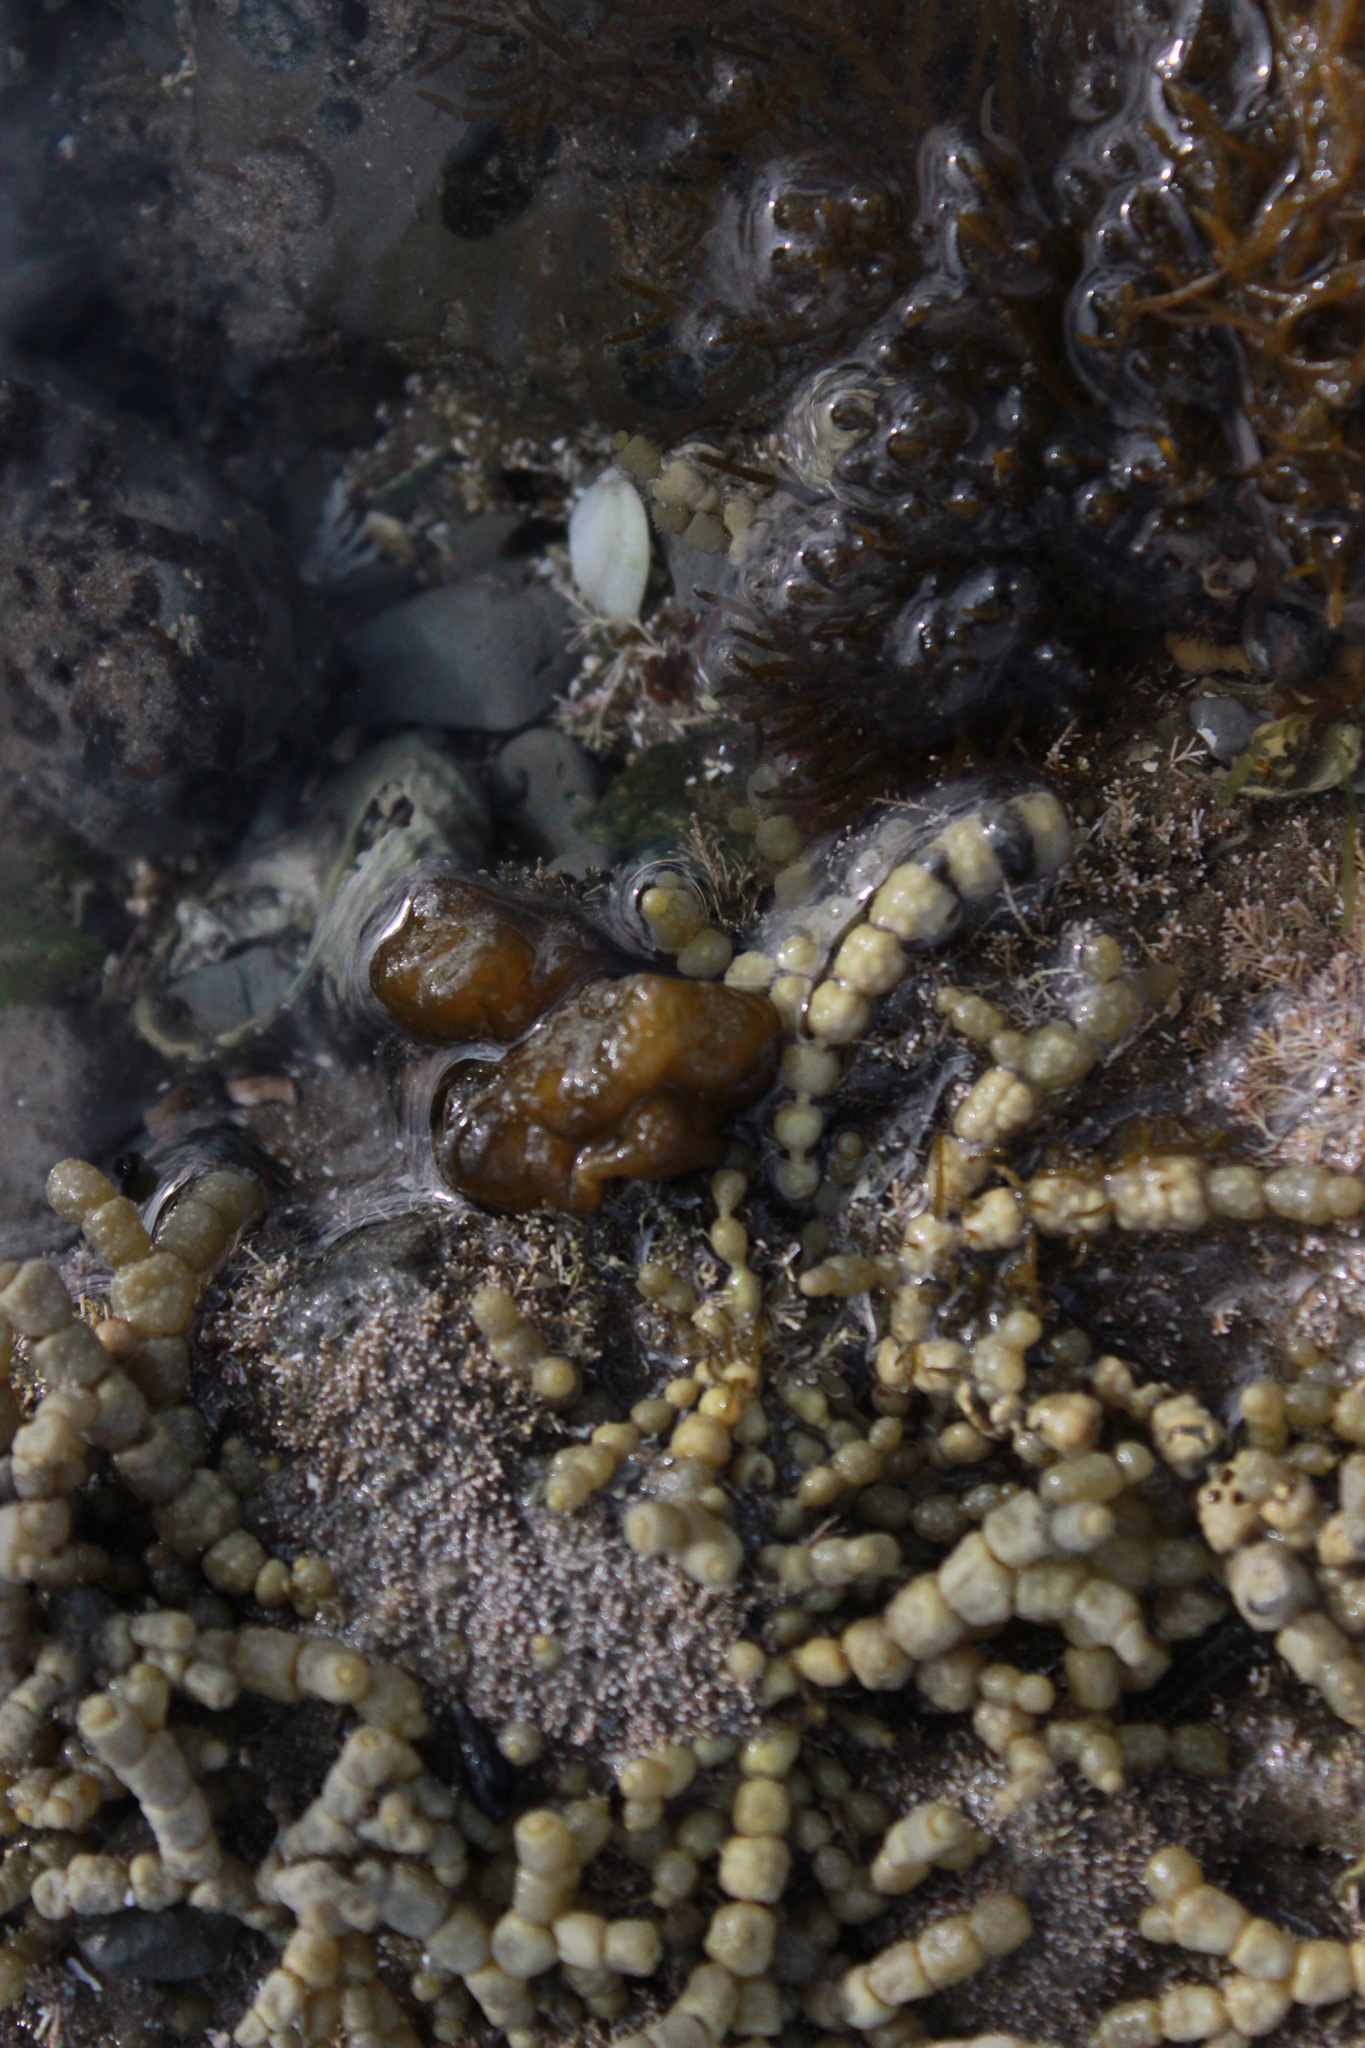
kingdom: Chromista
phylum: Ochrophyta
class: Phaeophyceae
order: Fucales
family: Hormosiraceae
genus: Hormosira
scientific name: Hormosira banksii
